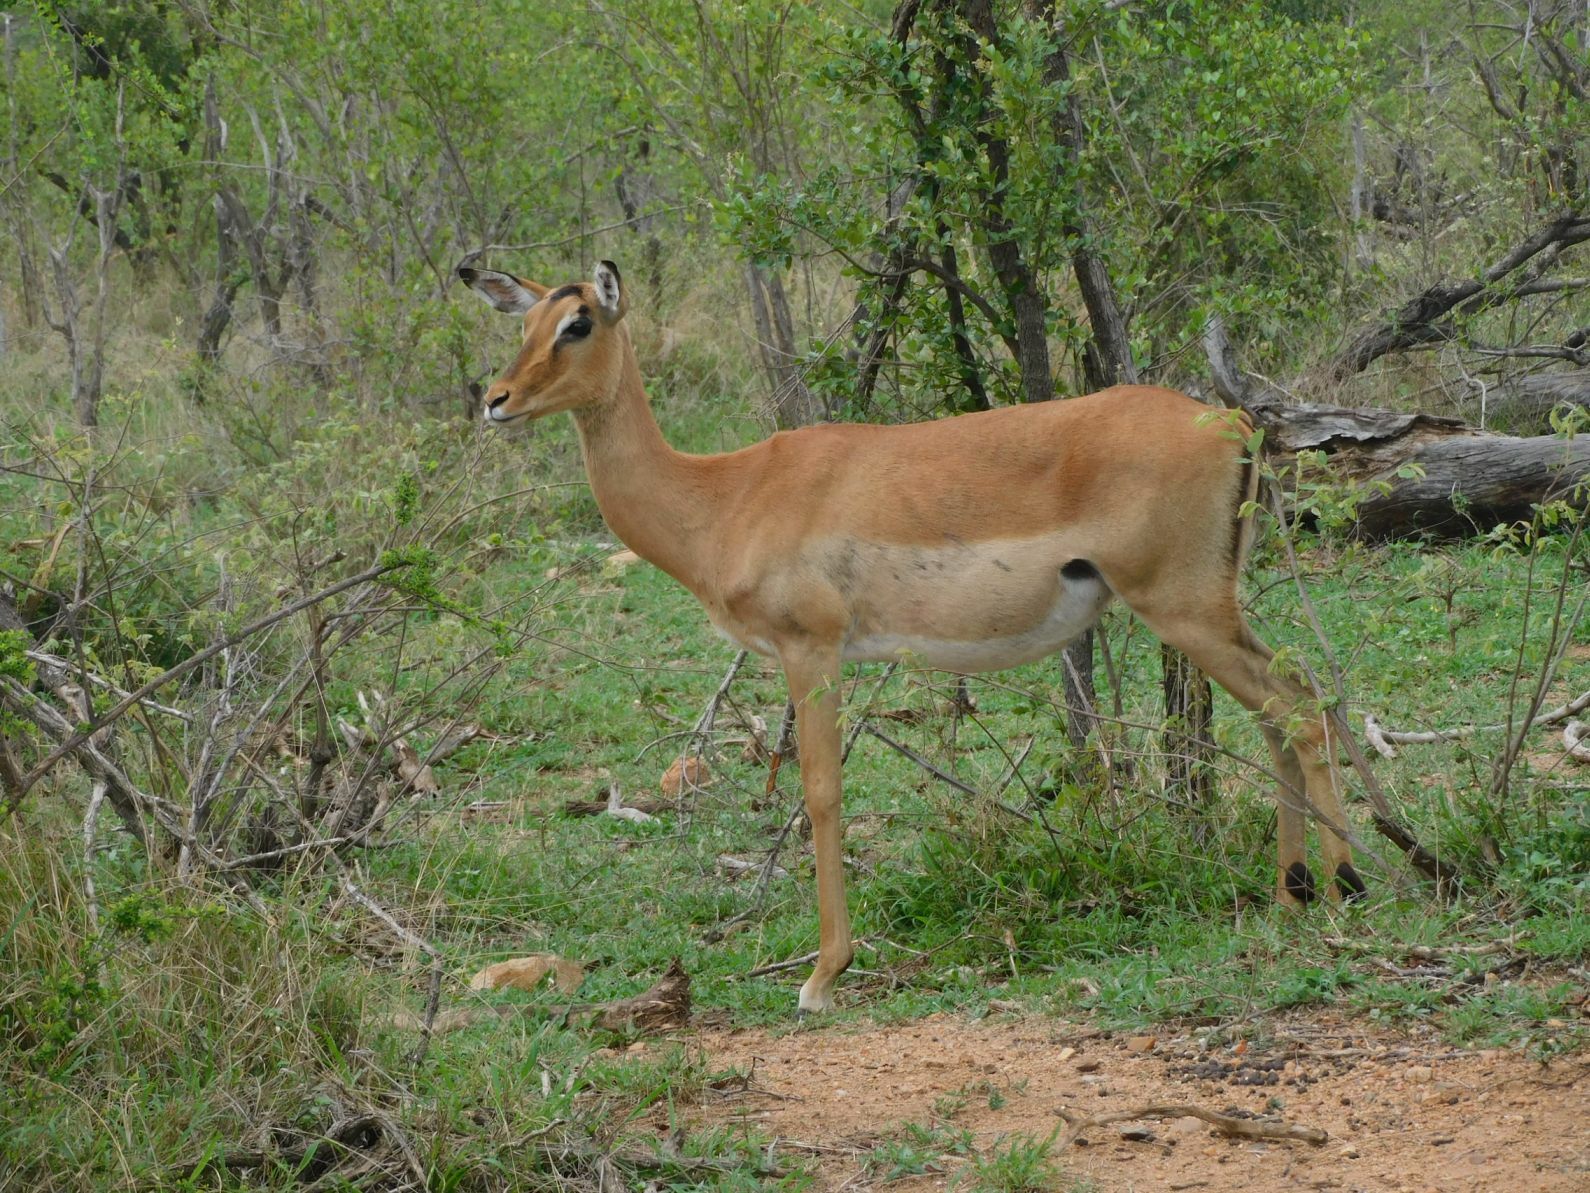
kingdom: Animalia
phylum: Chordata
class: Mammalia
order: Artiodactyla
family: Bovidae
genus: Aepyceros
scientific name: Aepyceros melampus
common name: Impala
